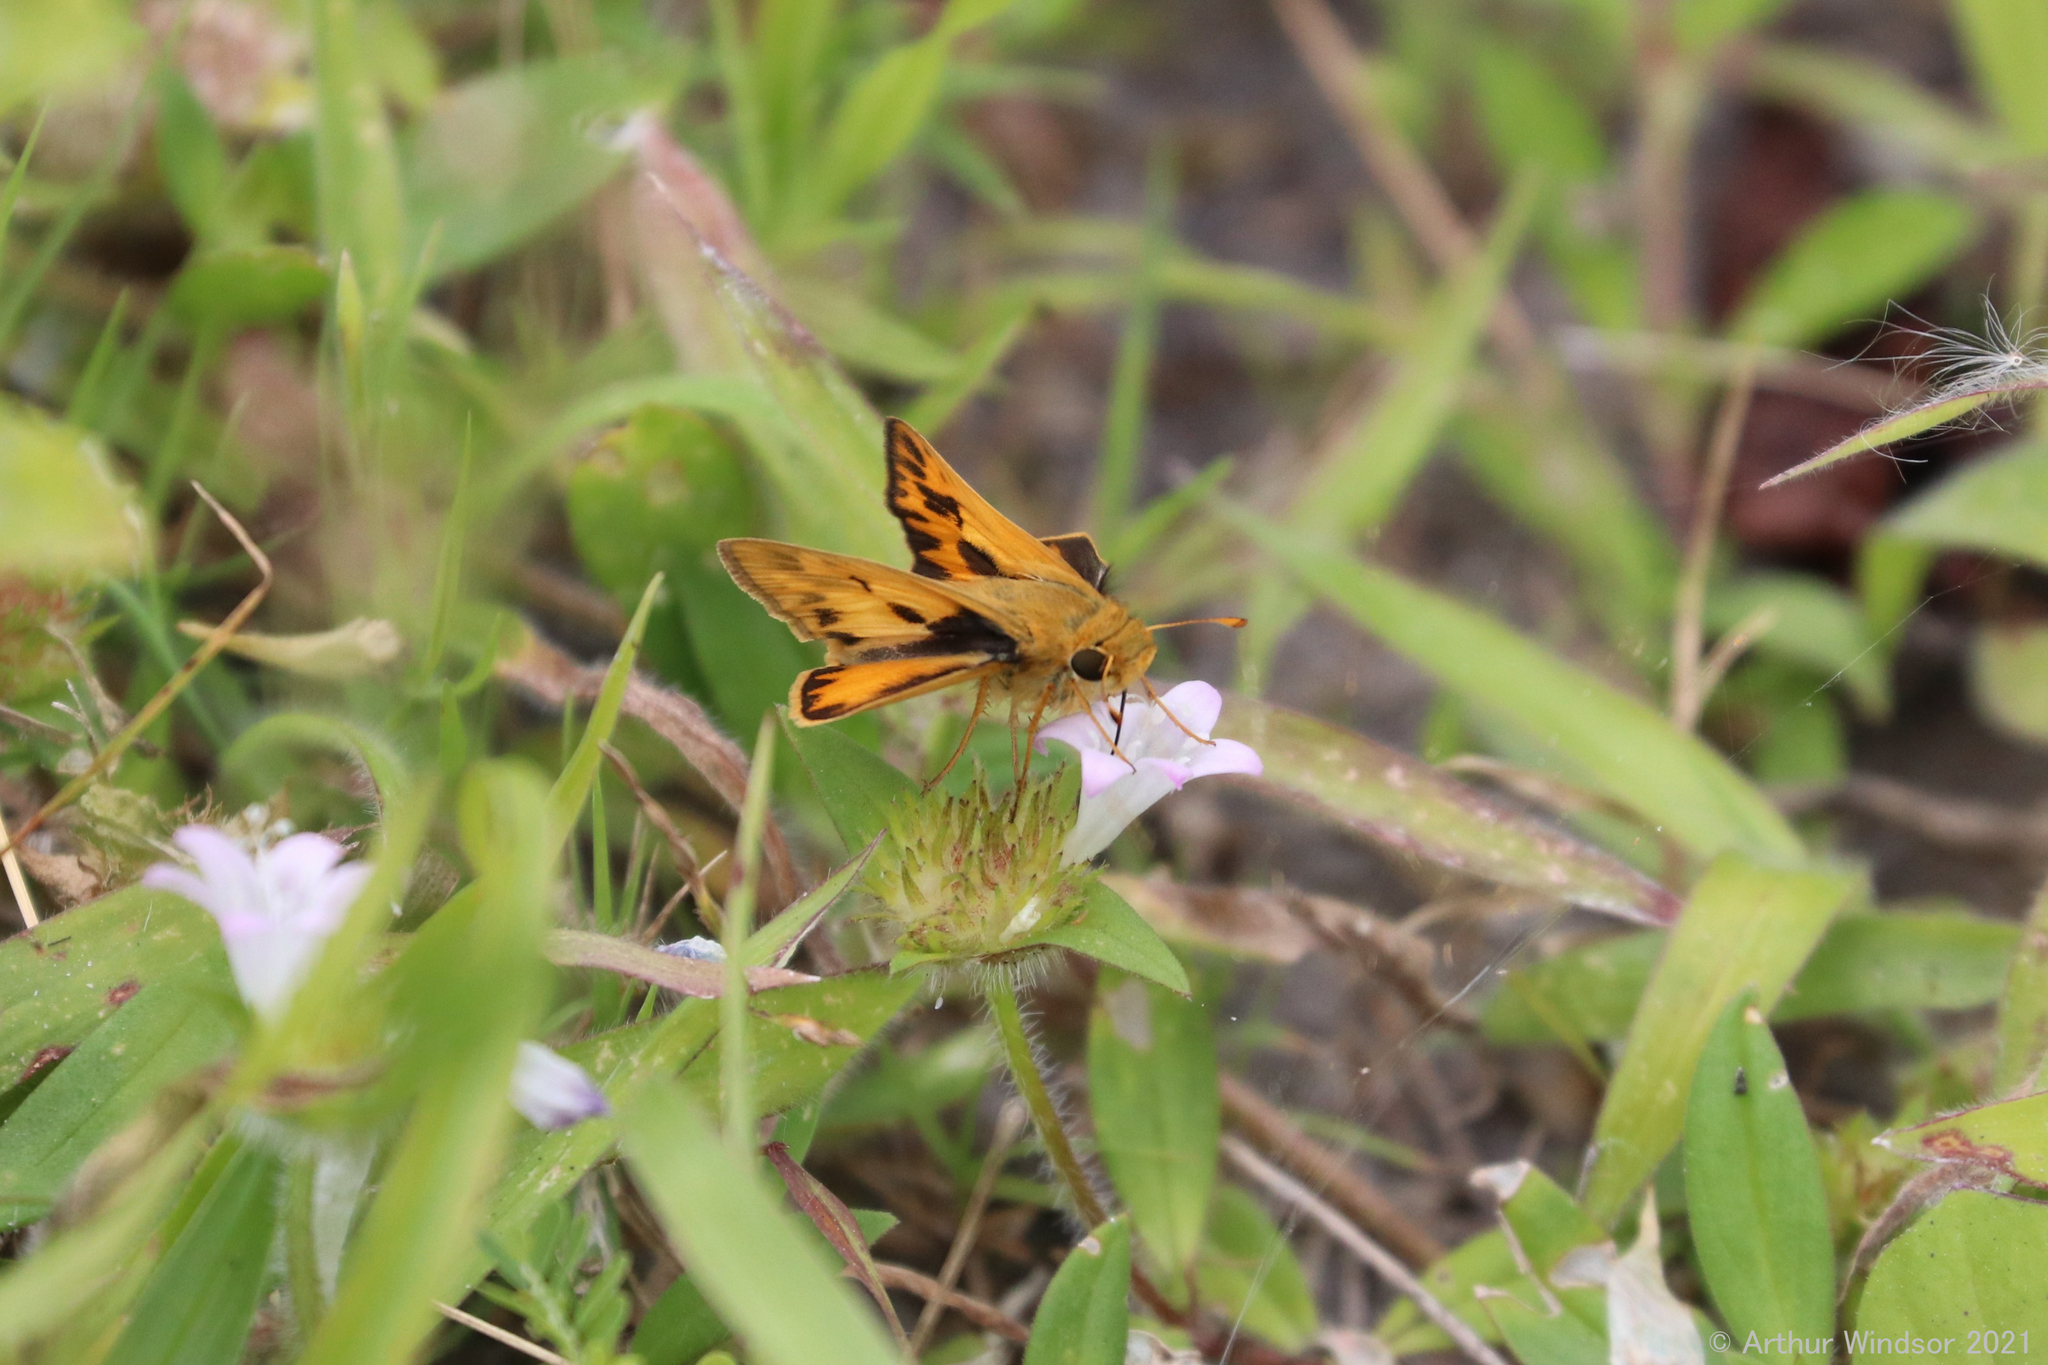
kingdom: Animalia
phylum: Arthropoda
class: Insecta
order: Lepidoptera
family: Hesperiidae
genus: Hylephila
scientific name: Hylephila phyleus
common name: Fiery skipper
